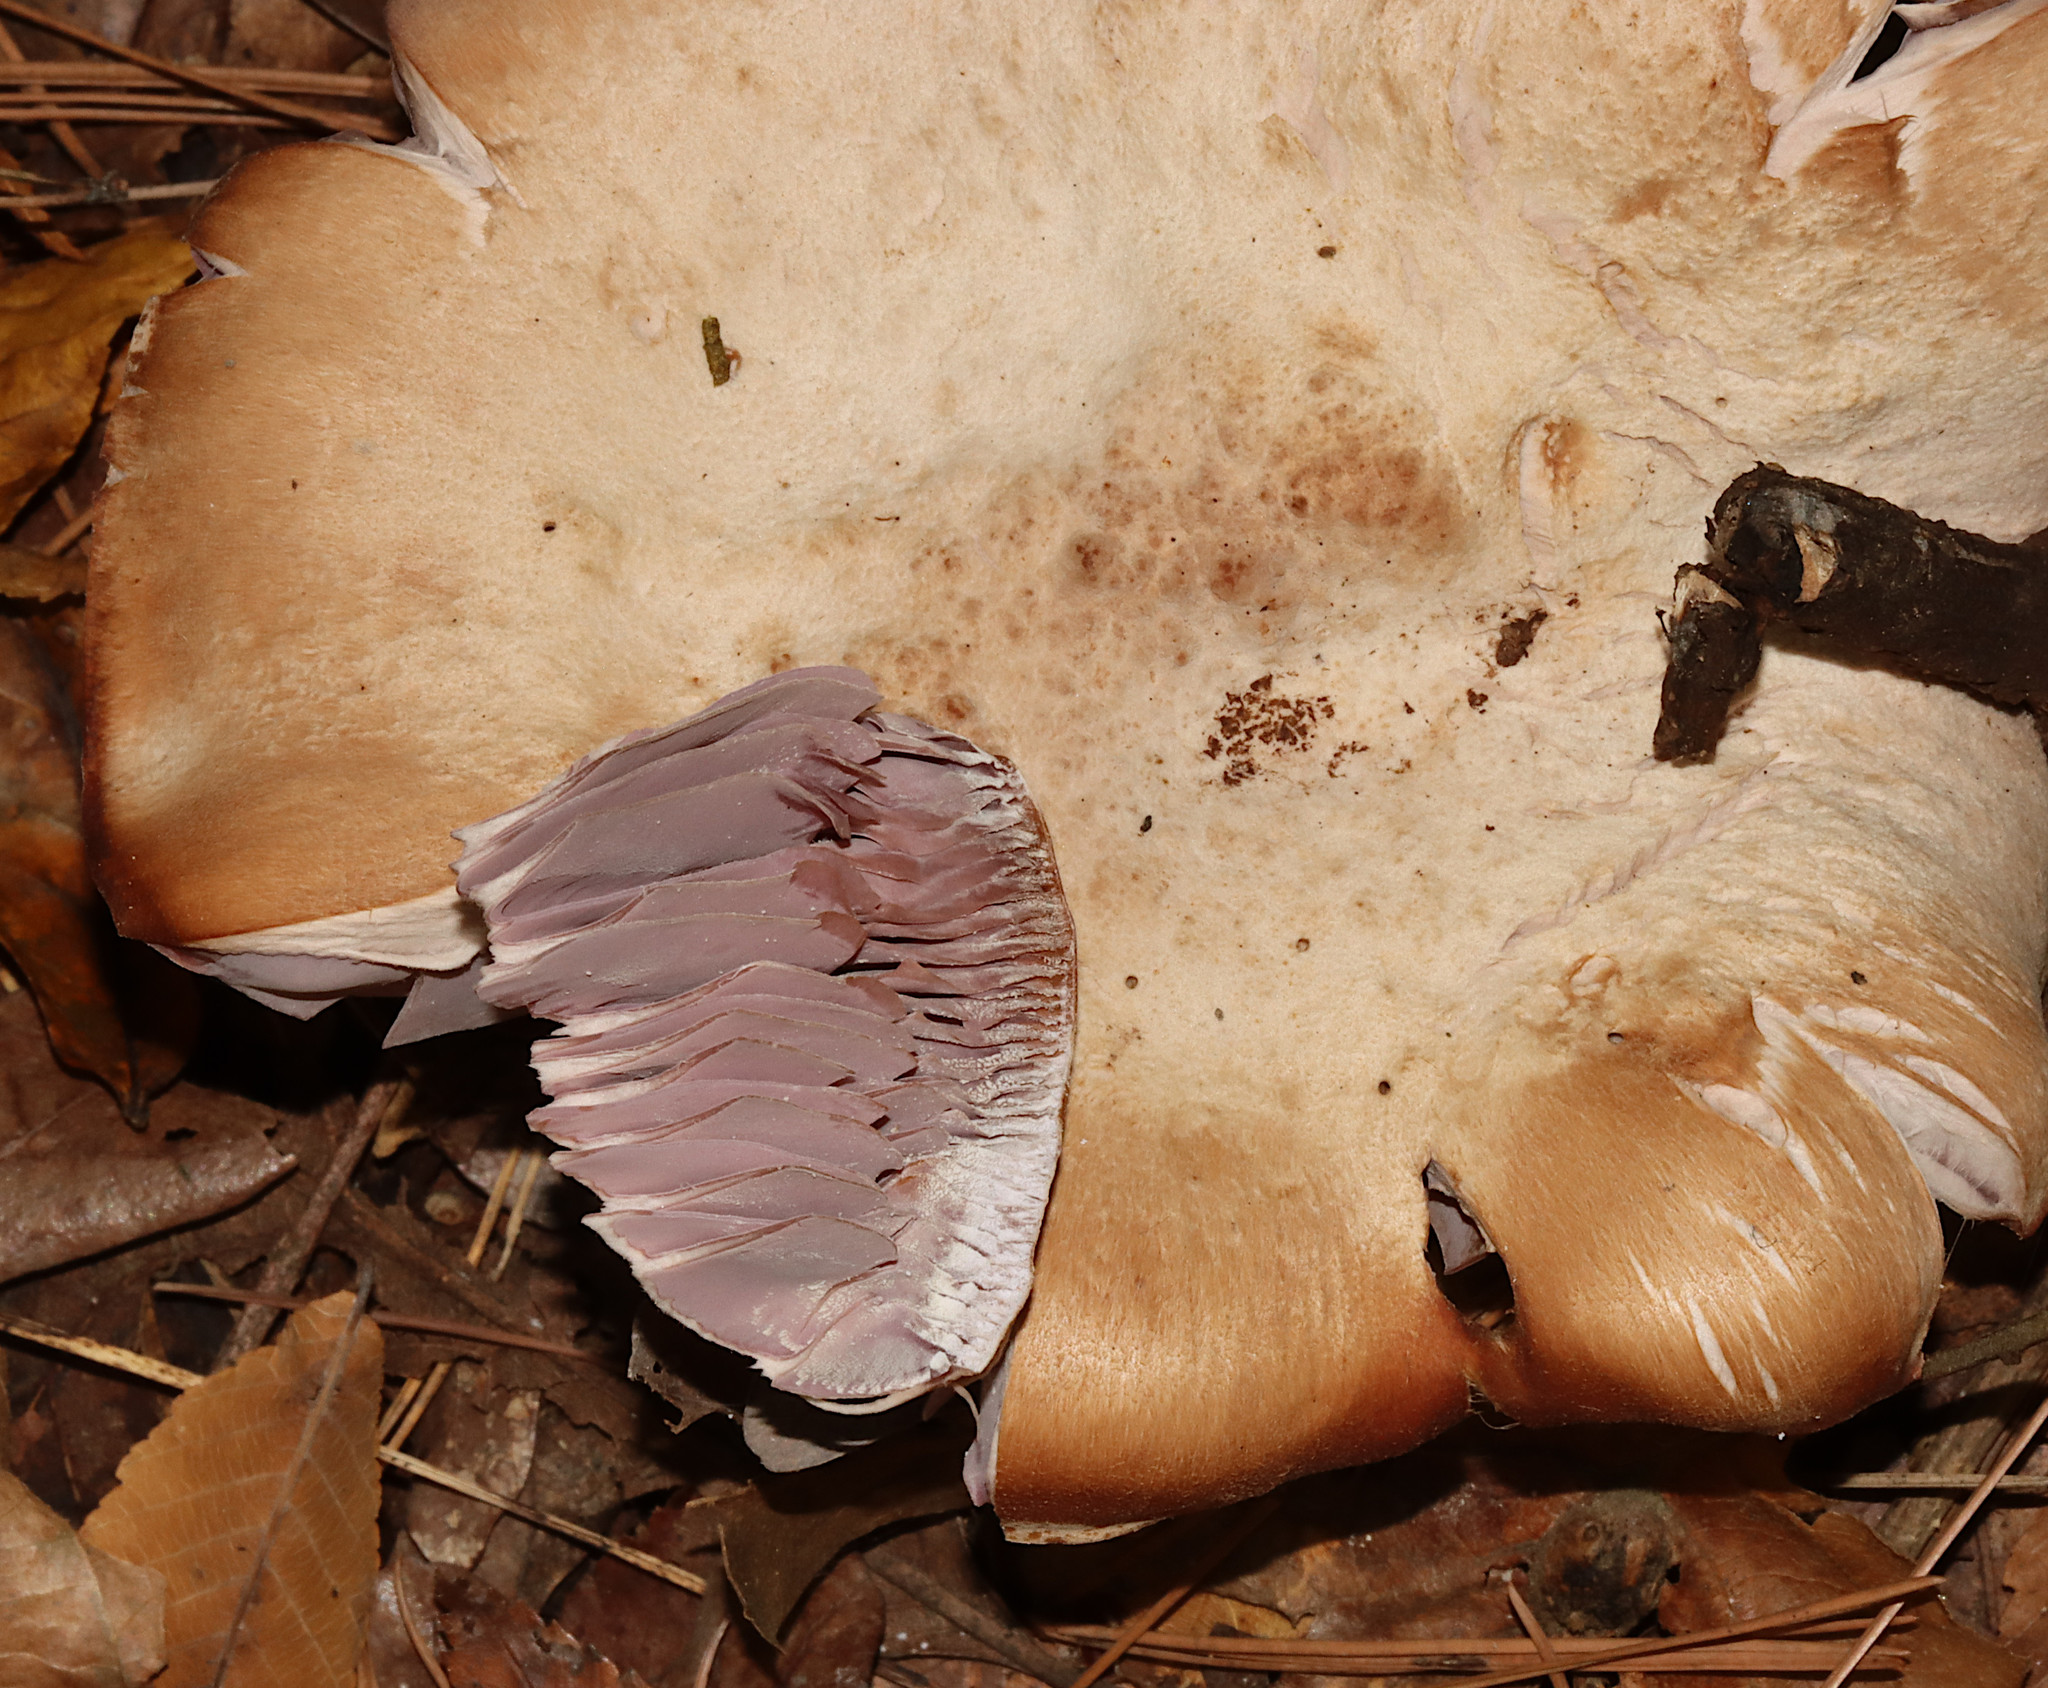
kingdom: Fungi
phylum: Basidiomycota
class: Agaricomycetes
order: Agaricales
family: Hydnangiaceae
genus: Laccaria
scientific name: Laccaria ochropurpurea
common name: Purple laccaria
